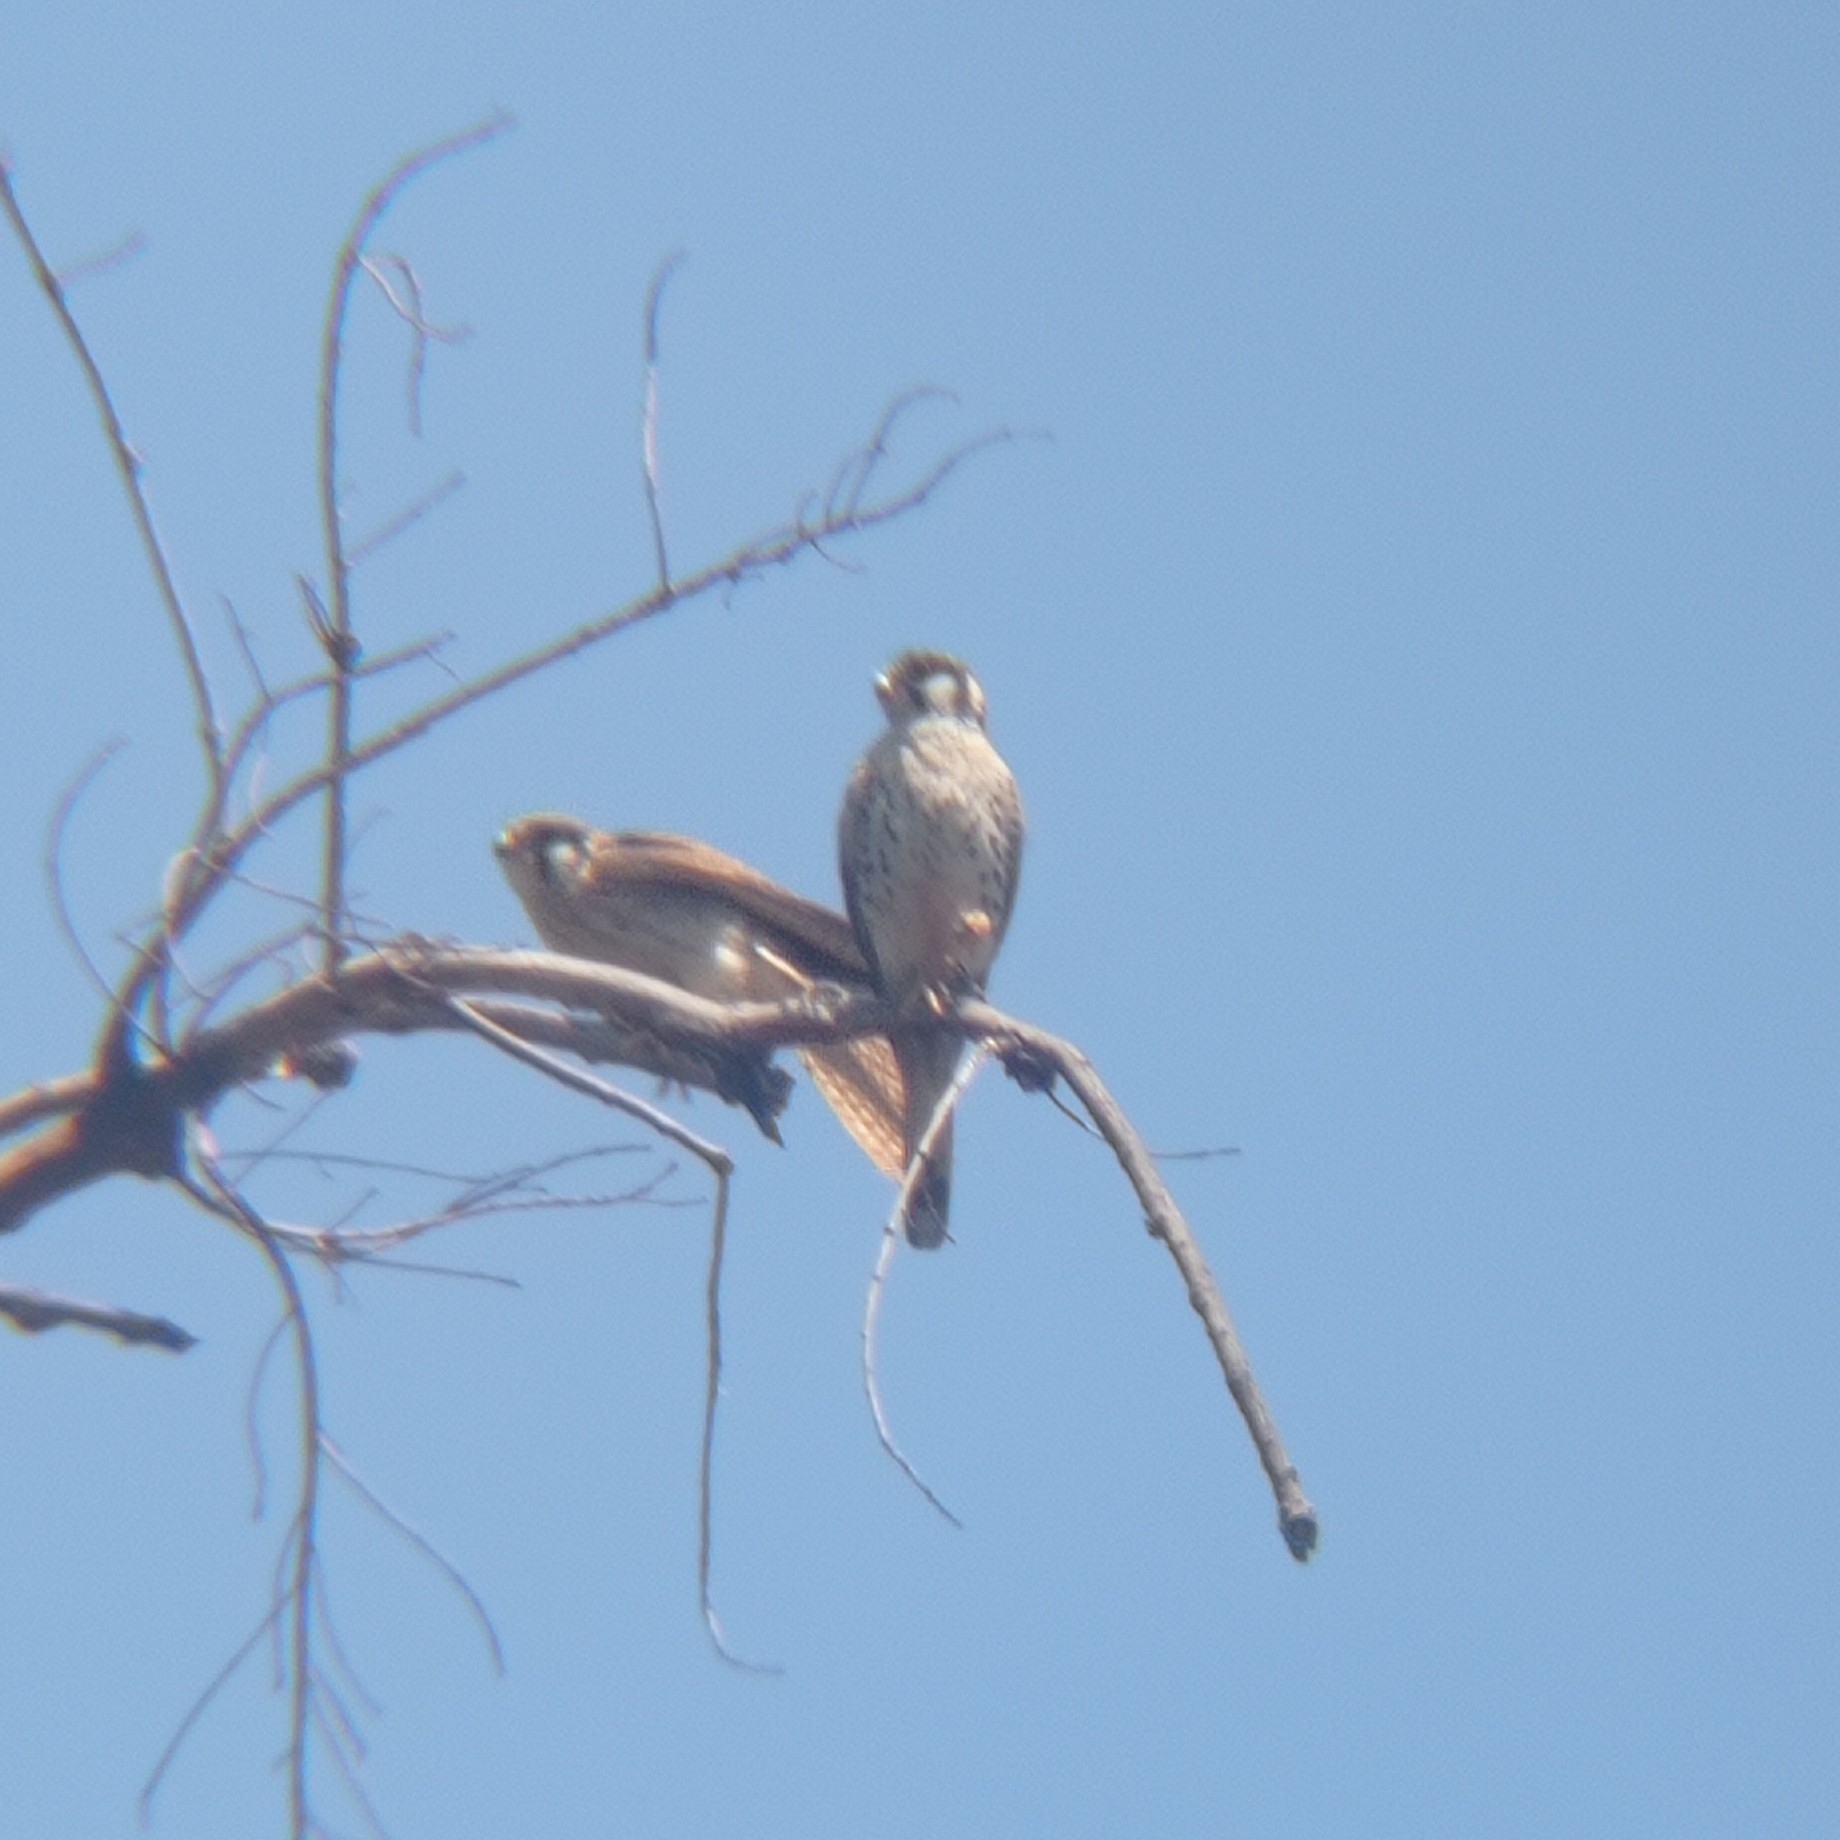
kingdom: Animalia
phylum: Chordata
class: Aves
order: Falconiformes
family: Falconidae
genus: Falco
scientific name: Falco sparverius
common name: American kestrel
